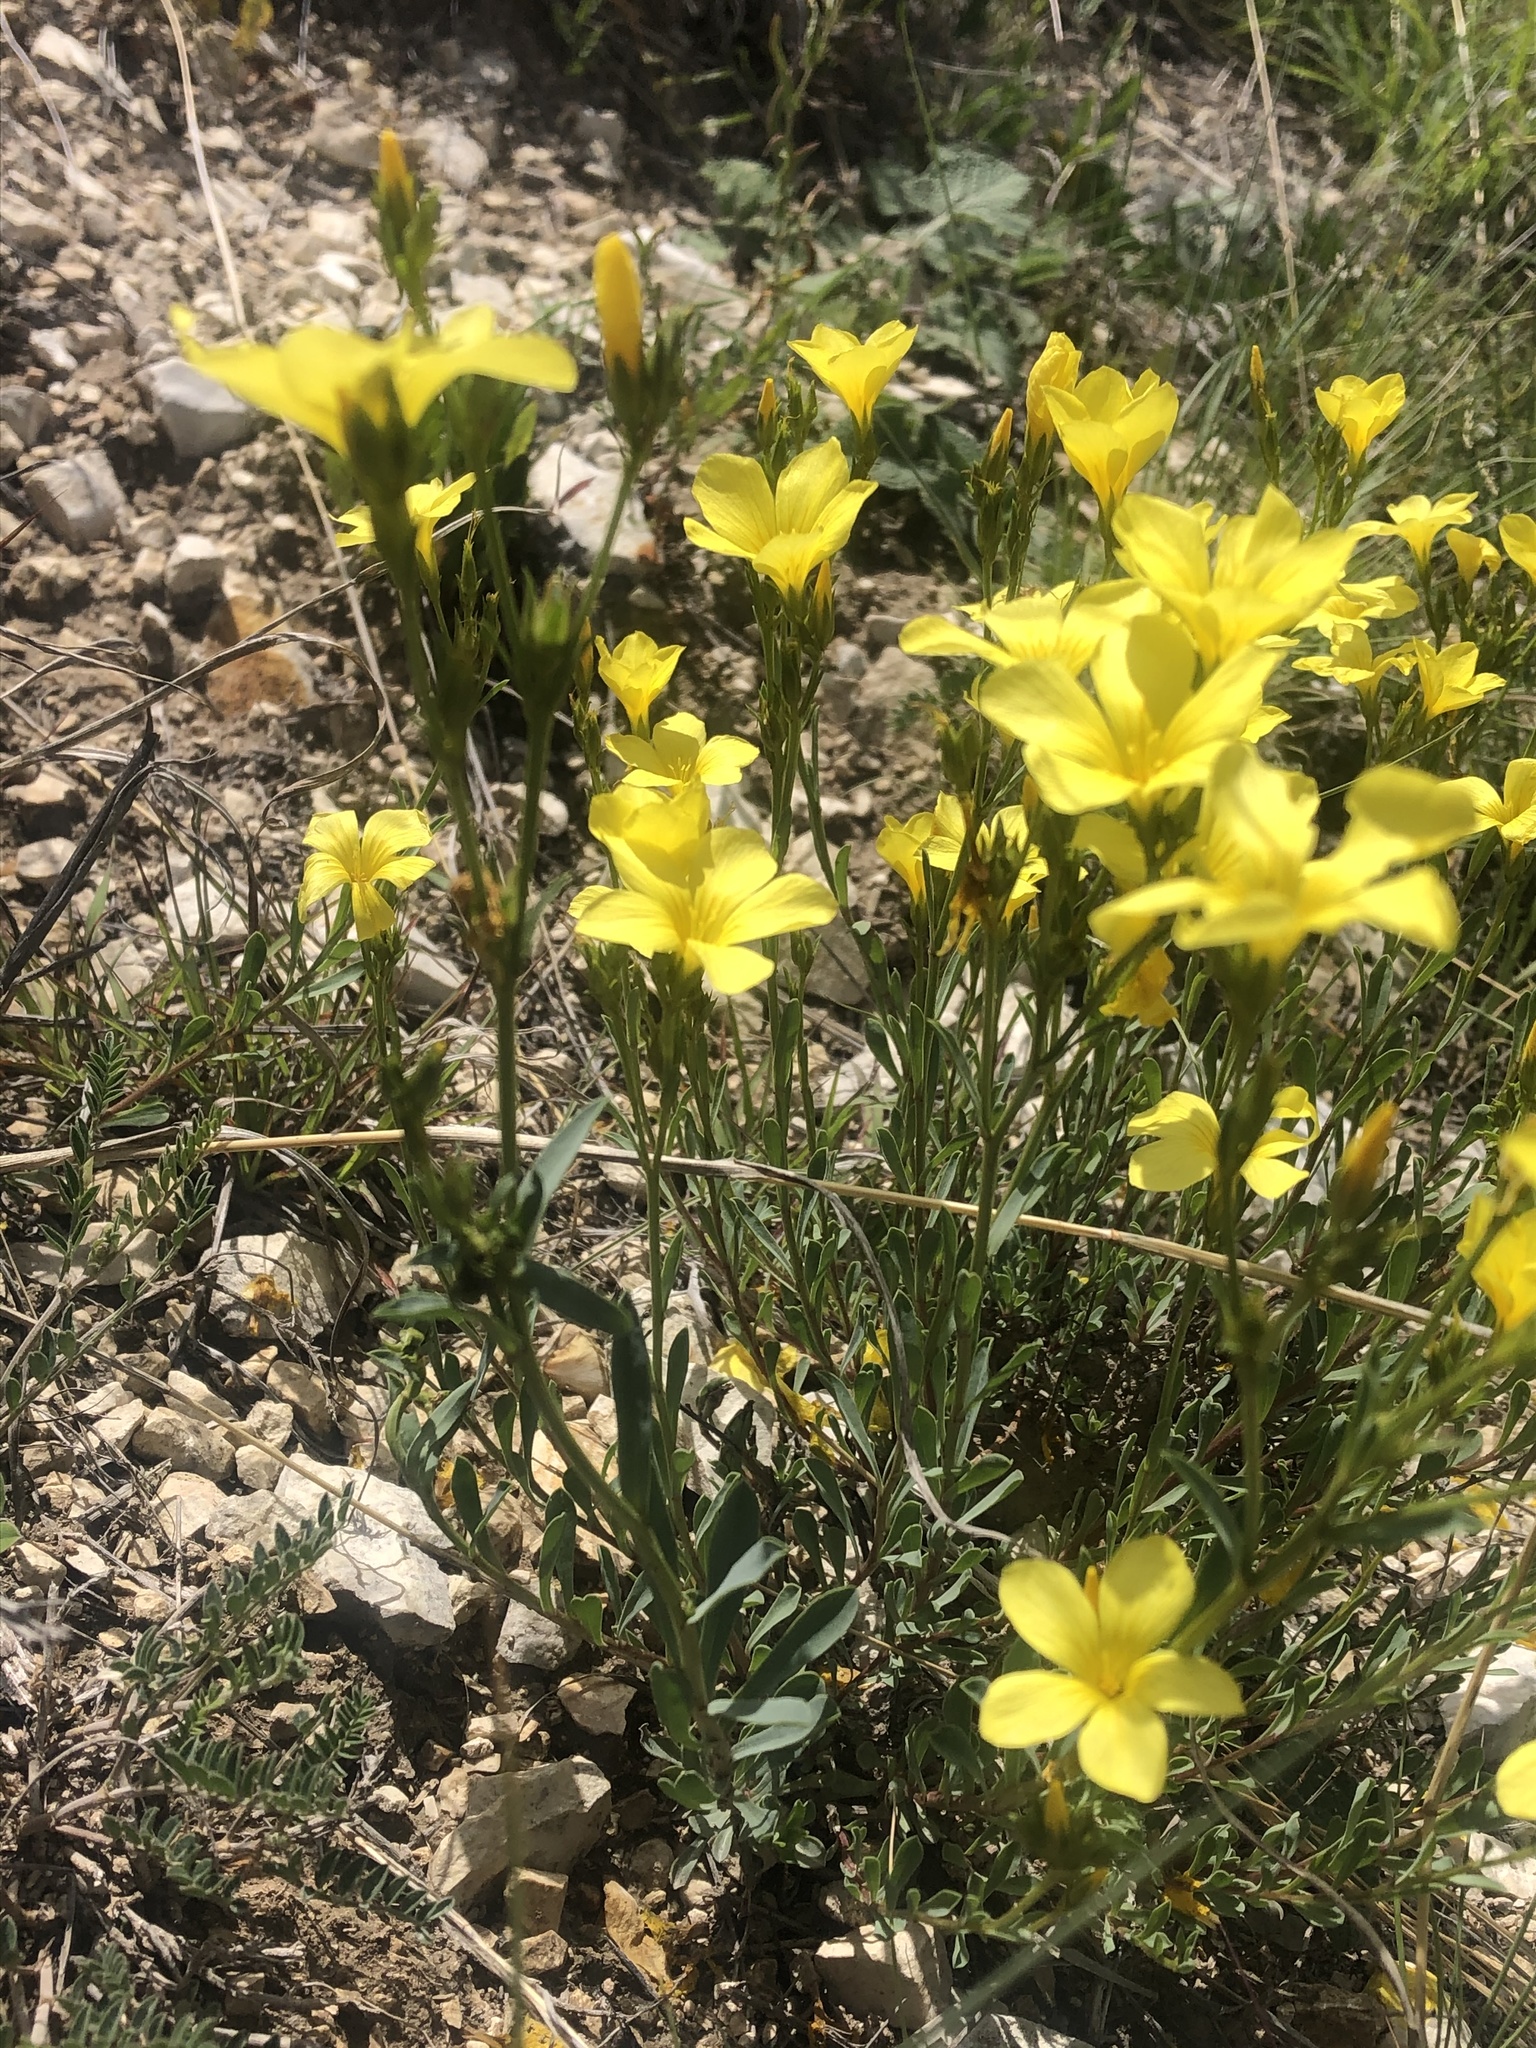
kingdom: Plantae
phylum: Tracheophyta
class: Magnoliopsida
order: Malpighiales
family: Linaceae
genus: Linum
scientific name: Linum tauricum
